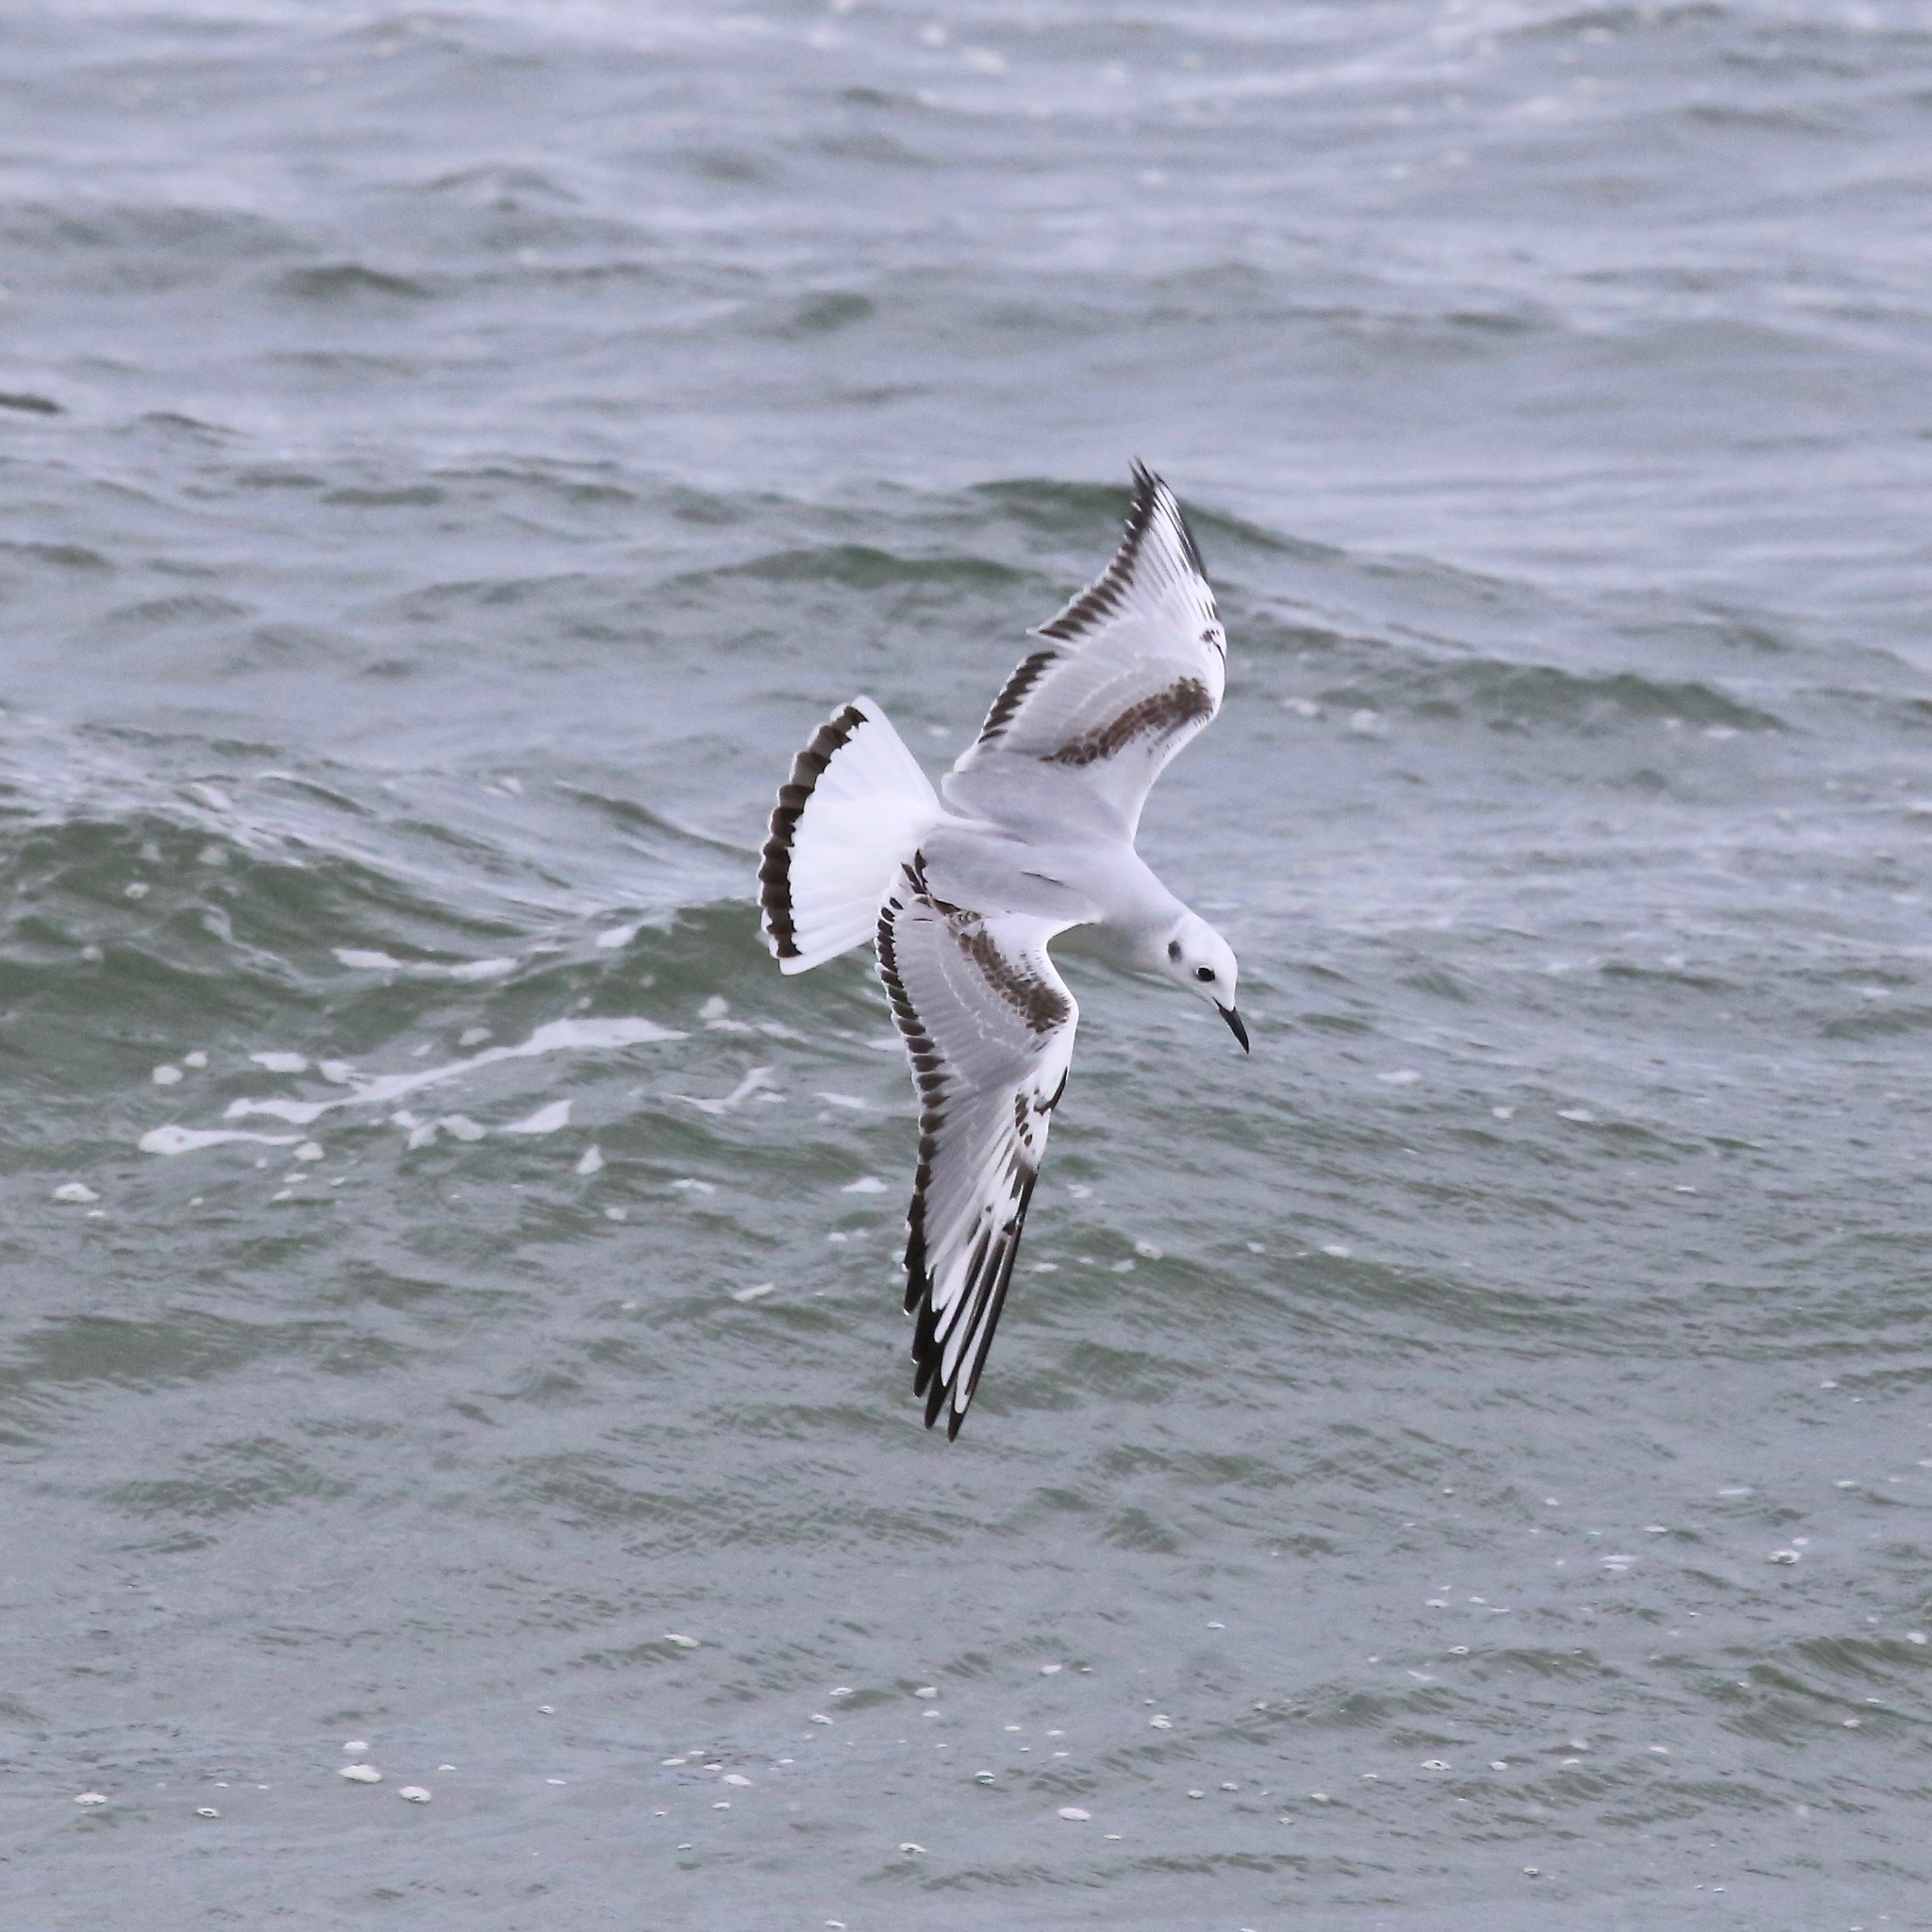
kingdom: Animalia
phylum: Chordata
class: Aves
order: Charadriiformes
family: Laridae
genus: Chroicocephalus
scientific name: Chroicocephalus philadelphia
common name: Bonaparte's gull
